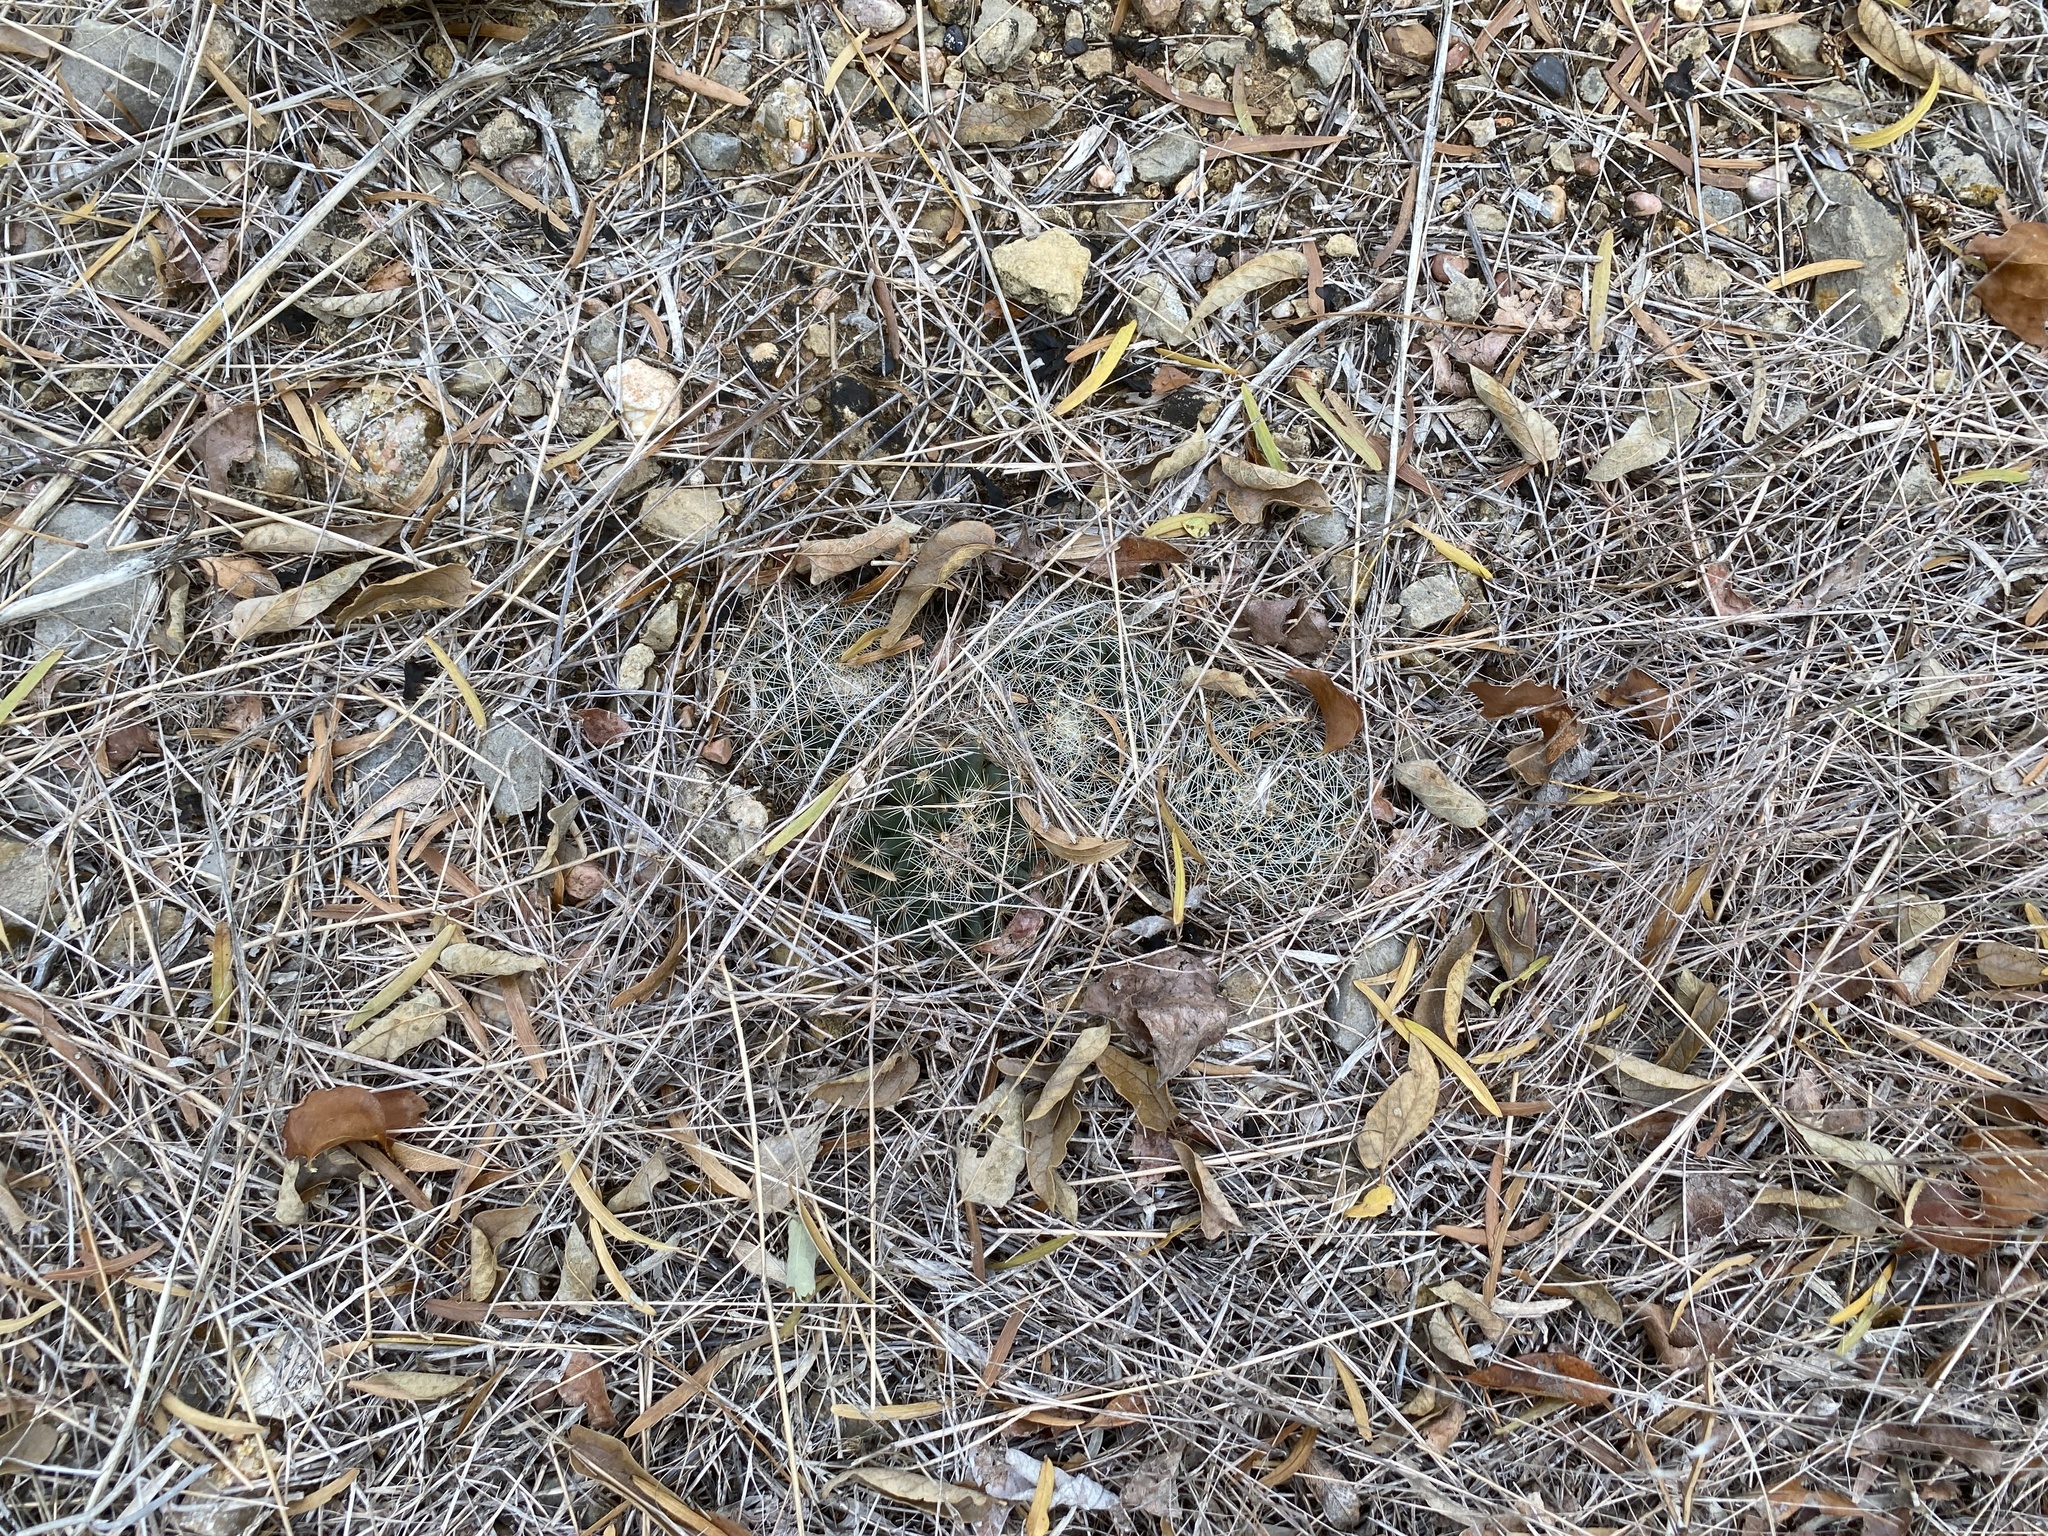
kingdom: Plantae
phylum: Tracheophyta
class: Magnoliopsida
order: Caryophyllales
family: Cactaceae
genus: Mammillaria
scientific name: Mammillaria heyderi
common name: Little nipple cactus
